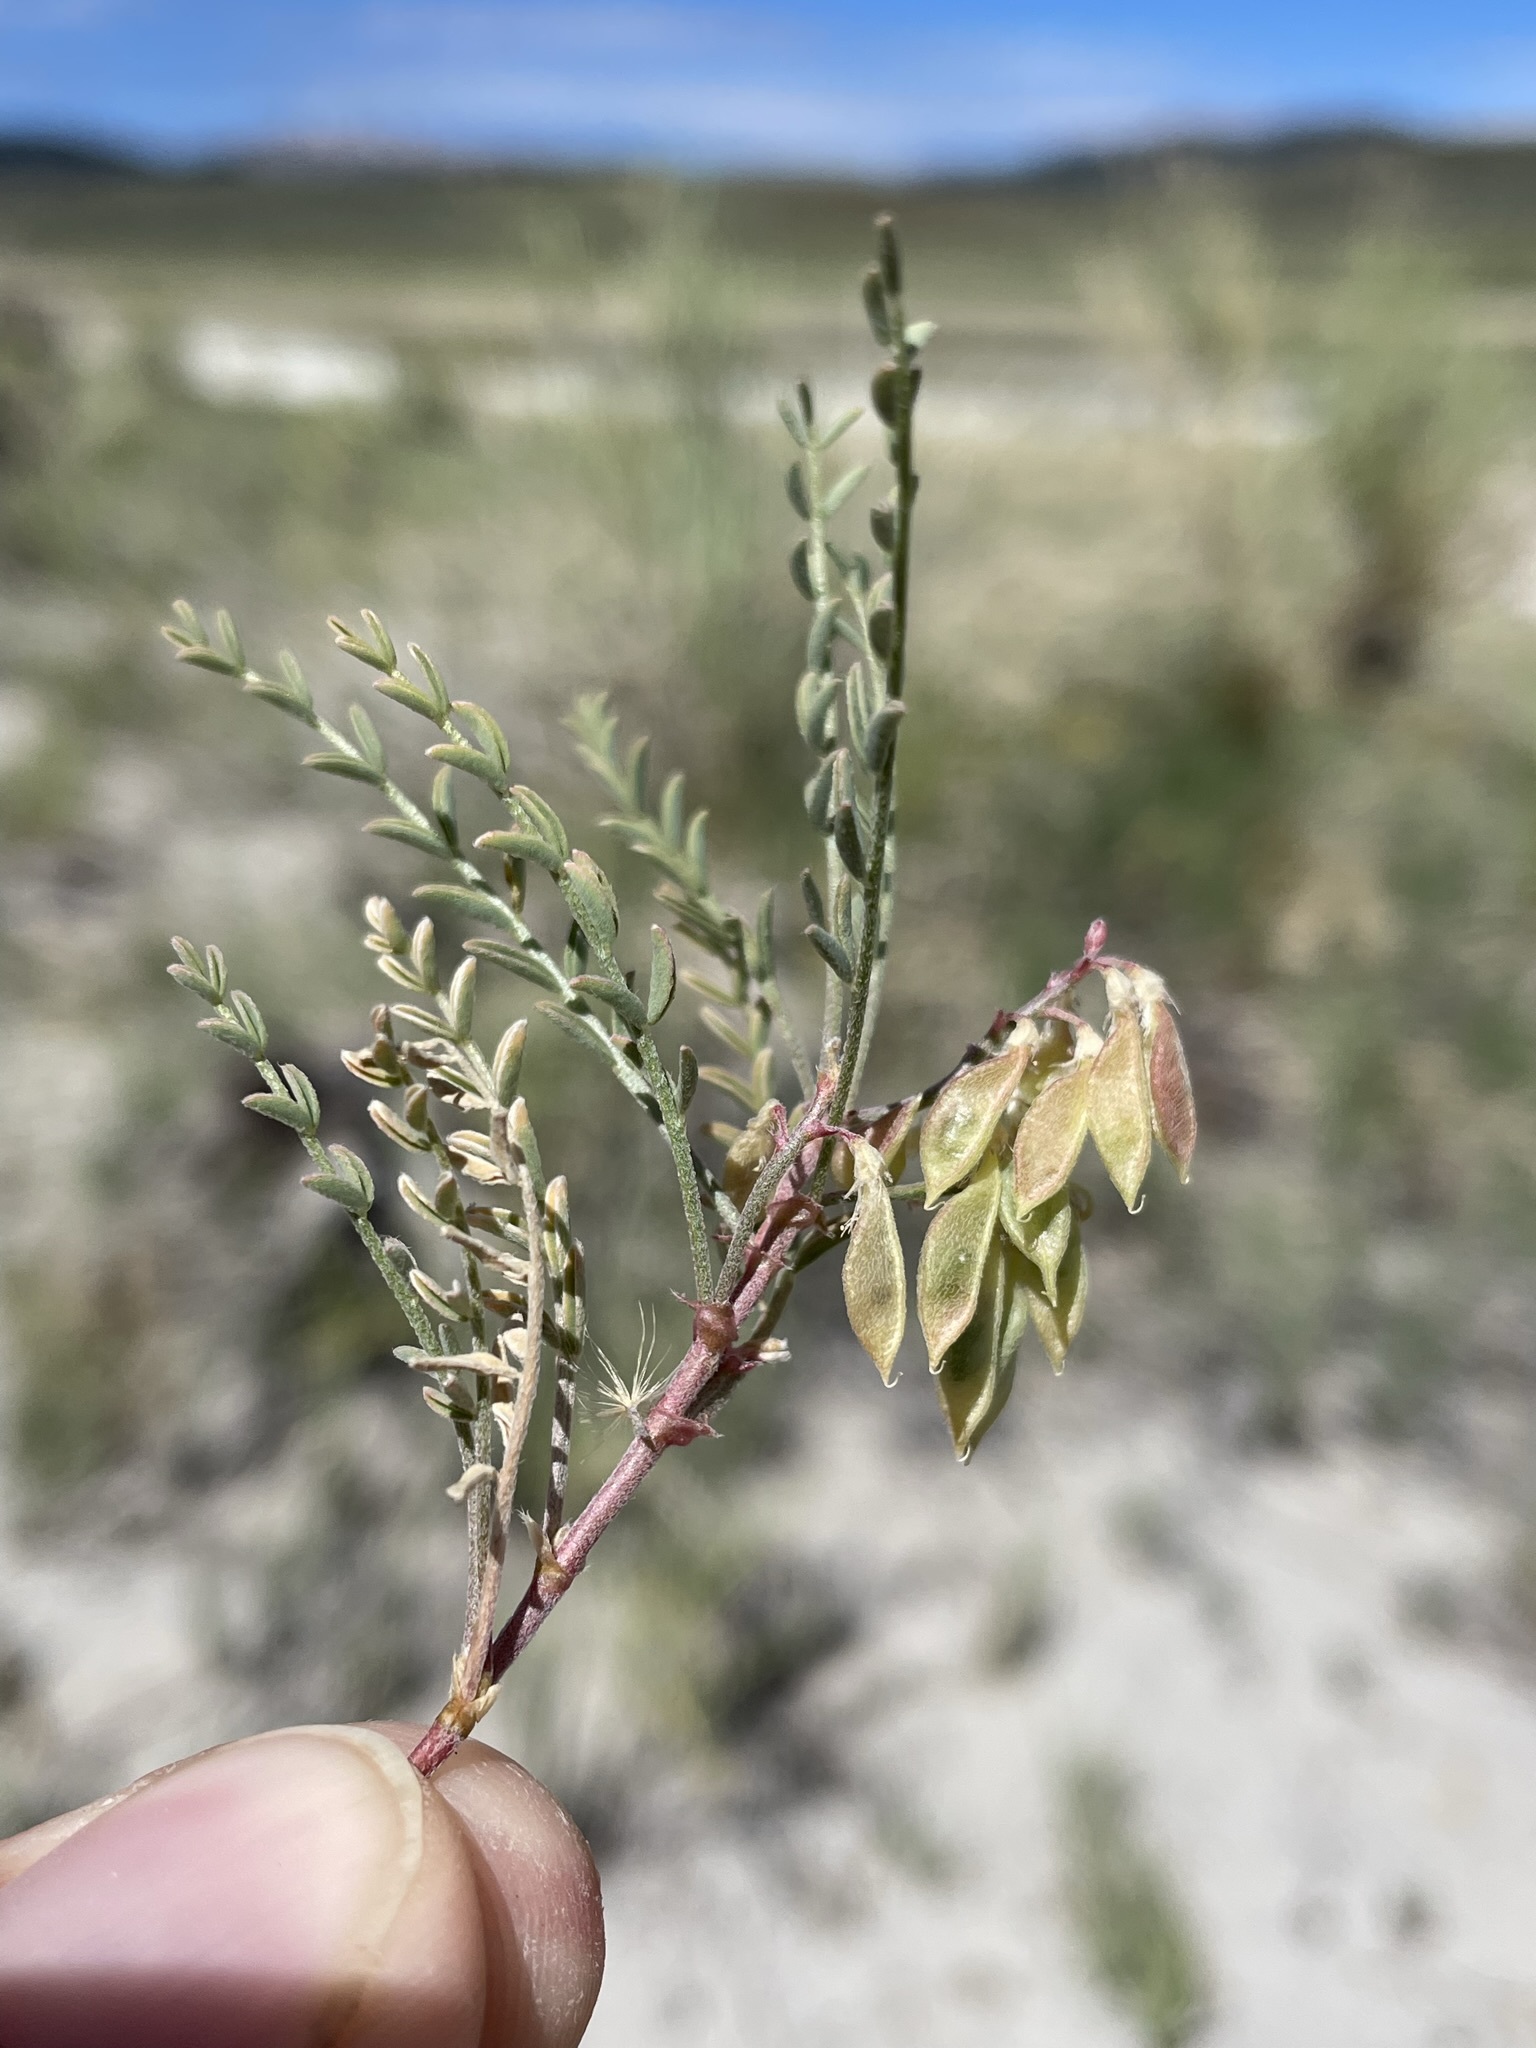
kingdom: Plantae
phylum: Tracheophyta
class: Magnoliopsida
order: Fabales
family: Fabaceae
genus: Astragalus
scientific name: Astragalus johannis-howellii
